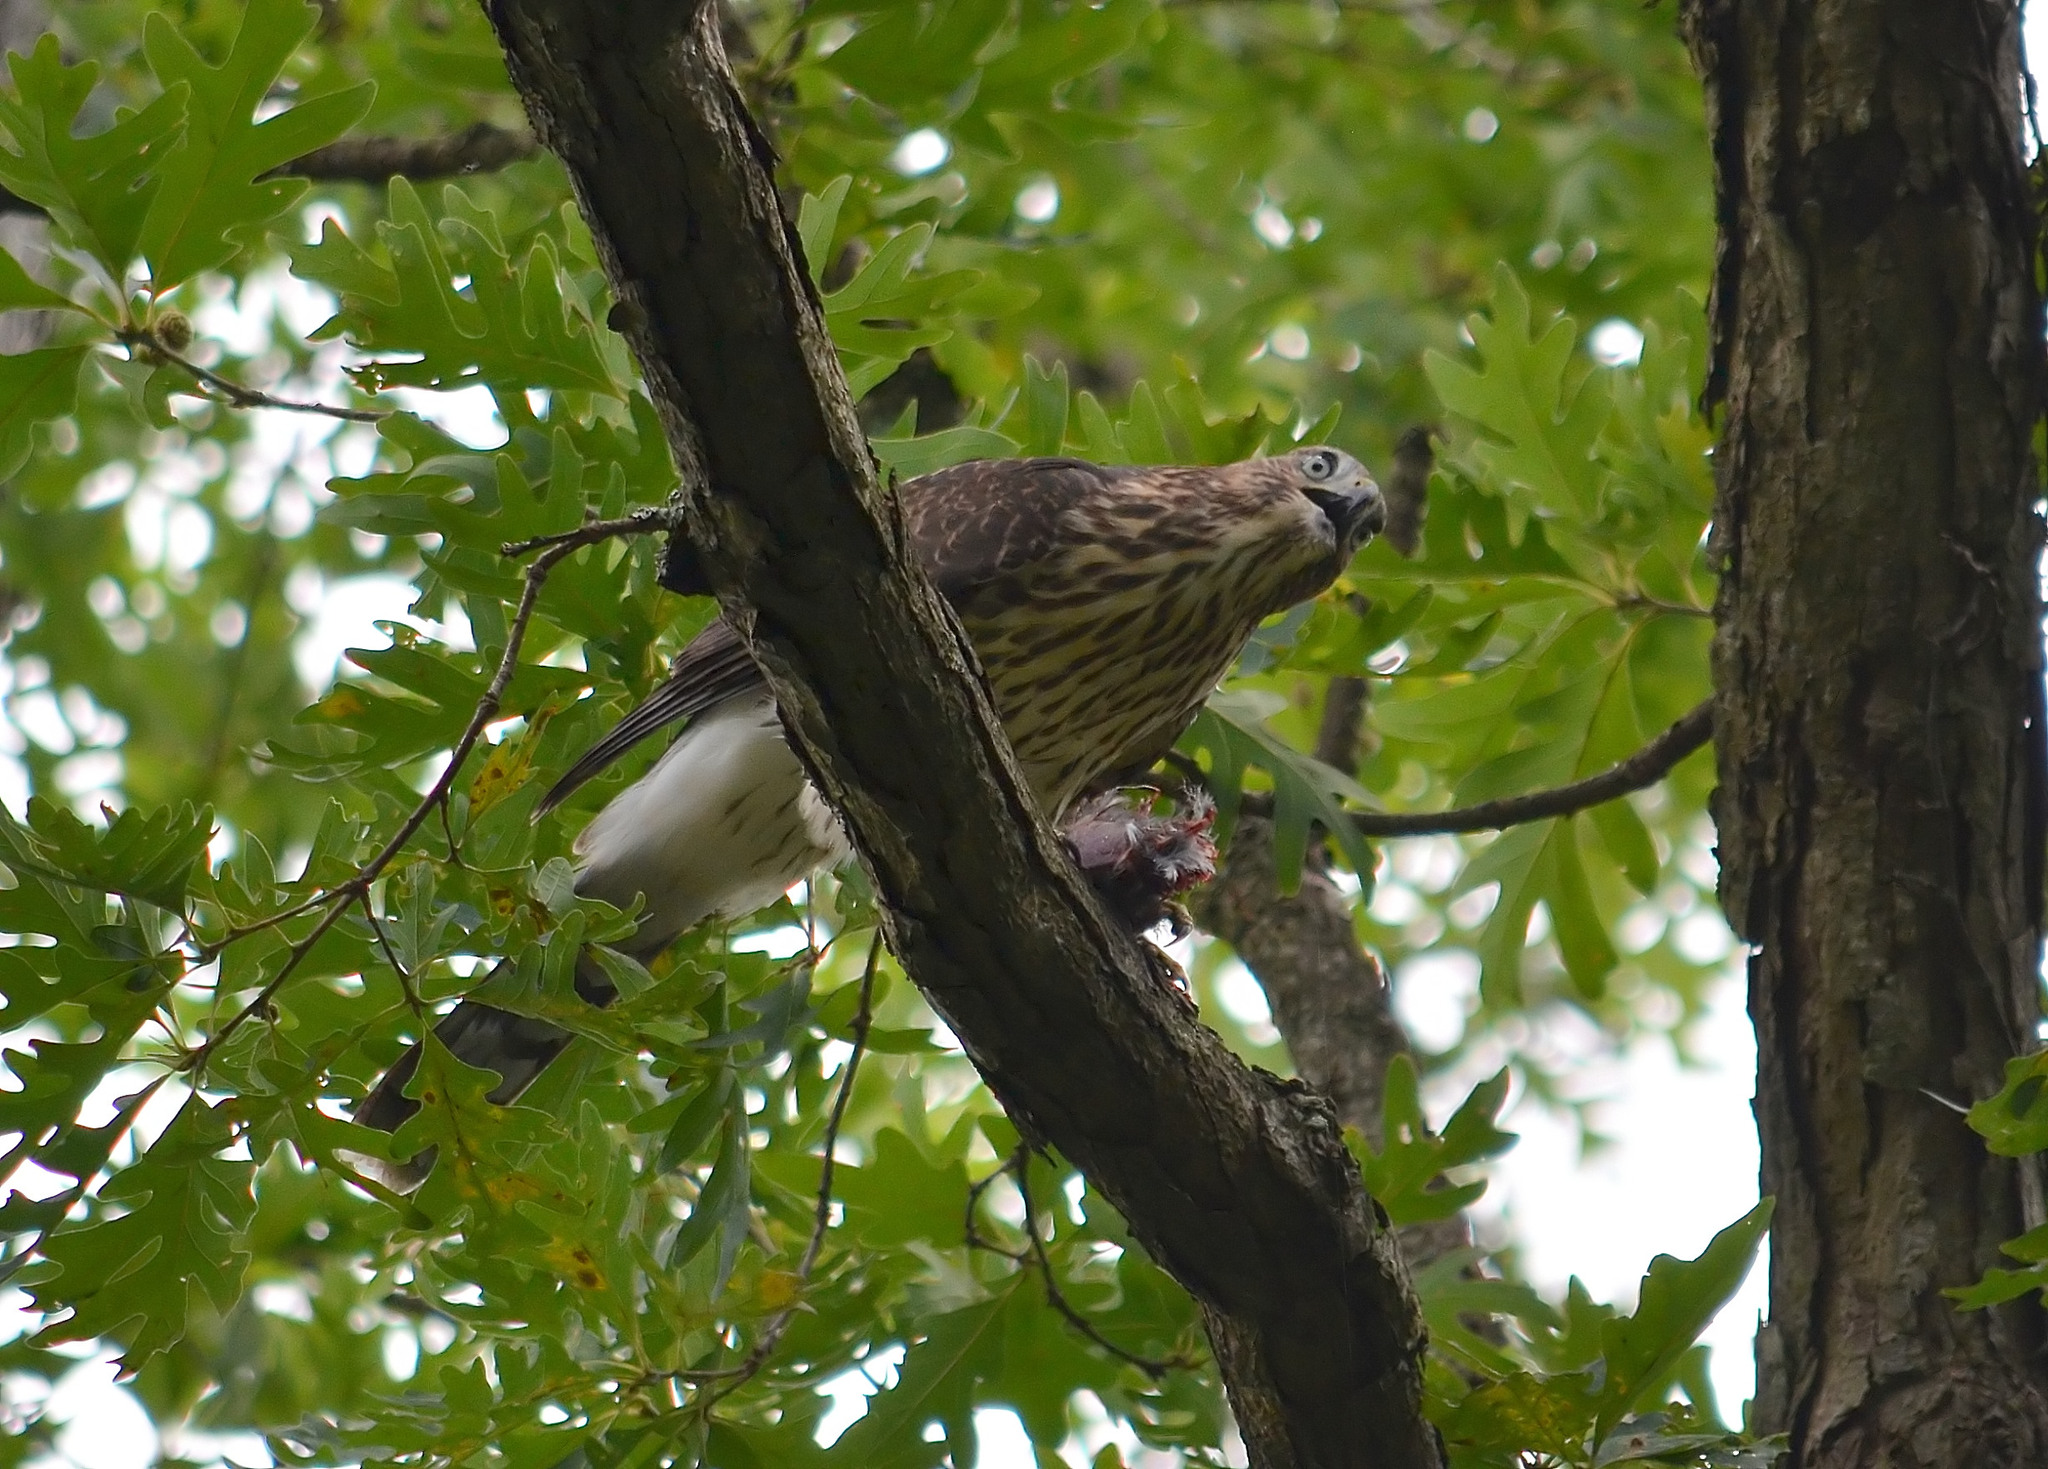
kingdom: Animalia
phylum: Chordata
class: Aves
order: Accipitriformes
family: Accipitridae
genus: Accipiter
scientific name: Accipiter cooperii
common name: Cooper's hawk
